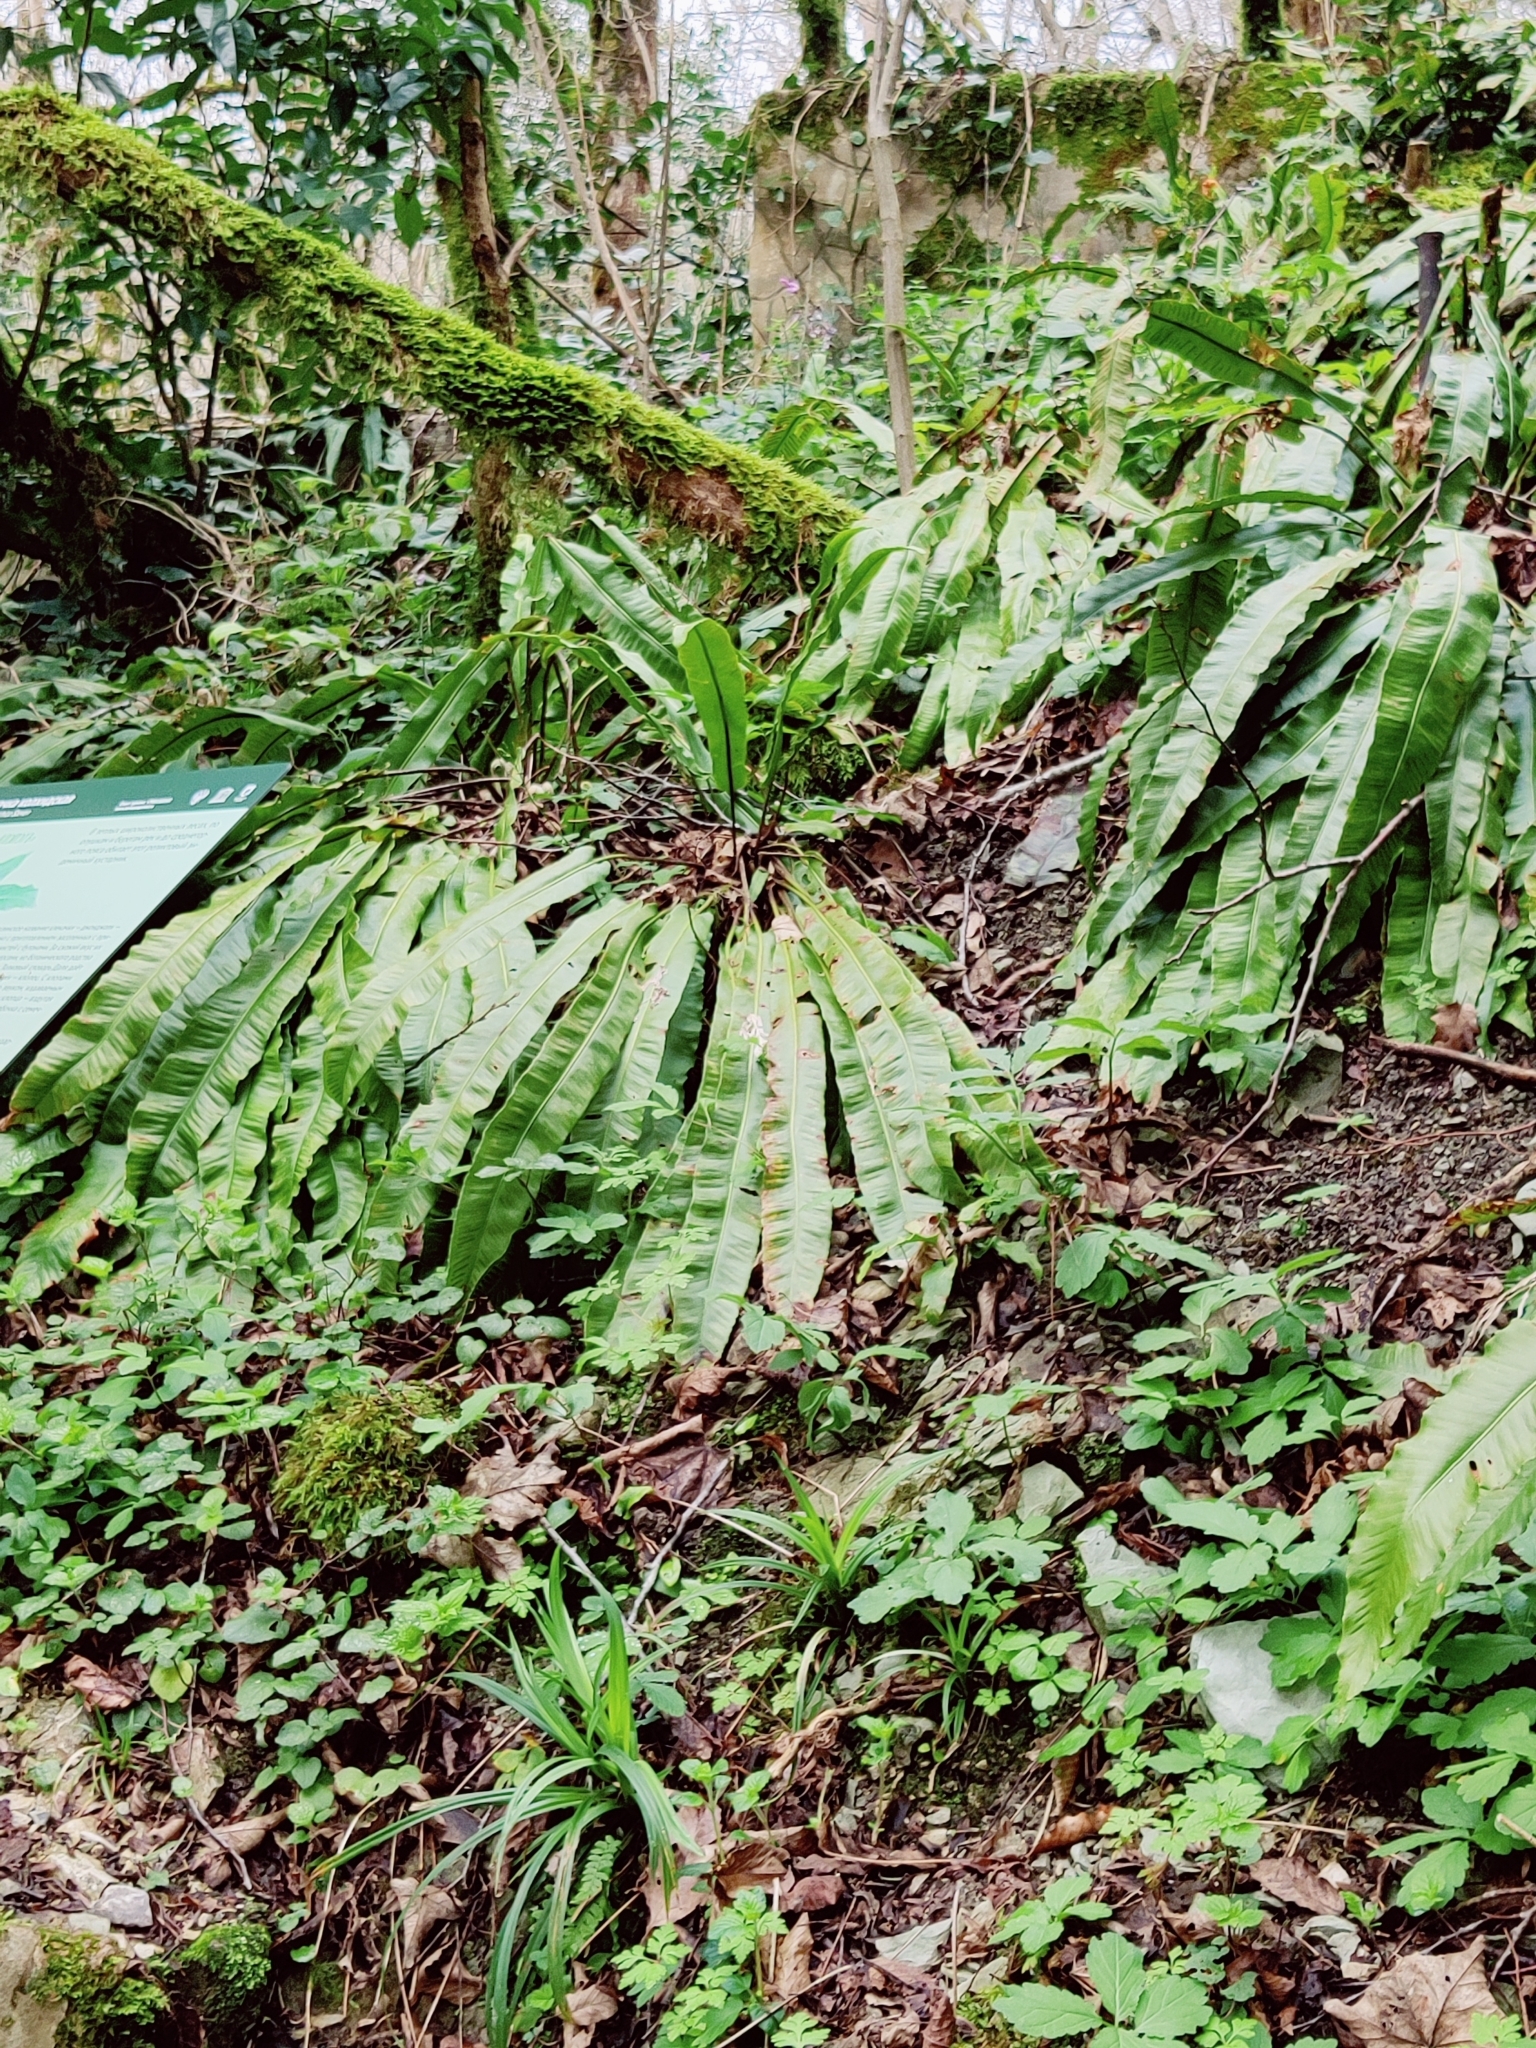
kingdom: Plantae
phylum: Tracheophyta
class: Polypodiopsida
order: Polypodiales
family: Aspleniaceae
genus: Asplenium
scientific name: Asplenium scolopendrium
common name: Hart's-tongue fern
